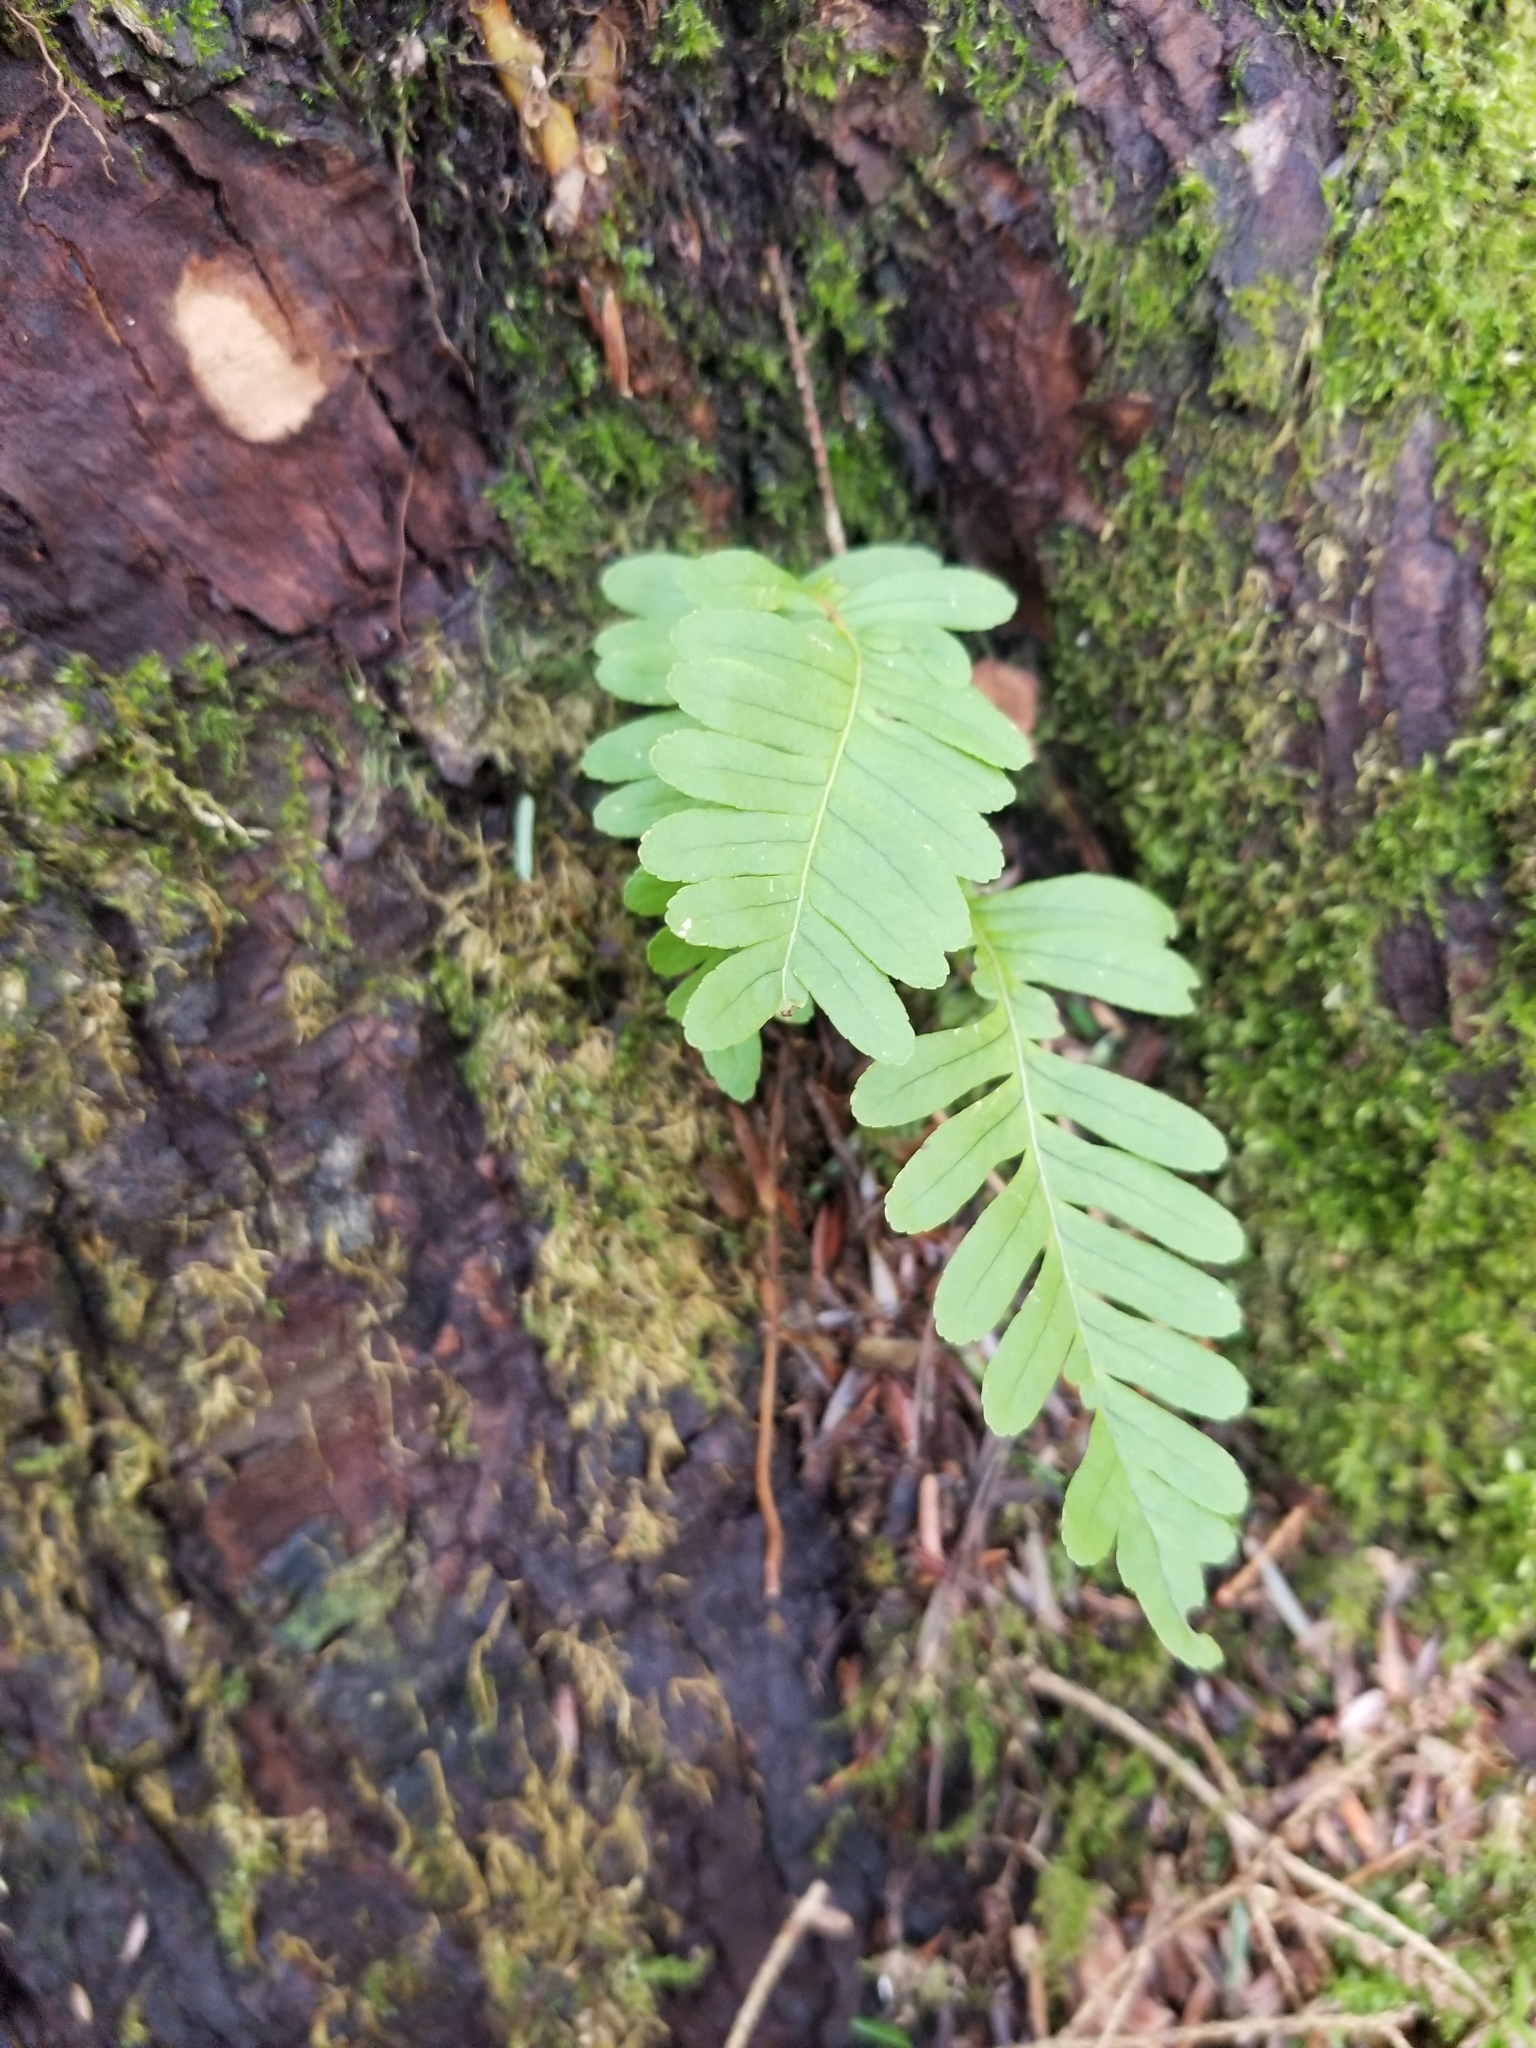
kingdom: Plantae
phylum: Tracheophyta
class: Polypodiopsida
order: Polypodiales
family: Polypodiaceae
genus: Polypodium
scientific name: Polypodium virginianum
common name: American wall fern
